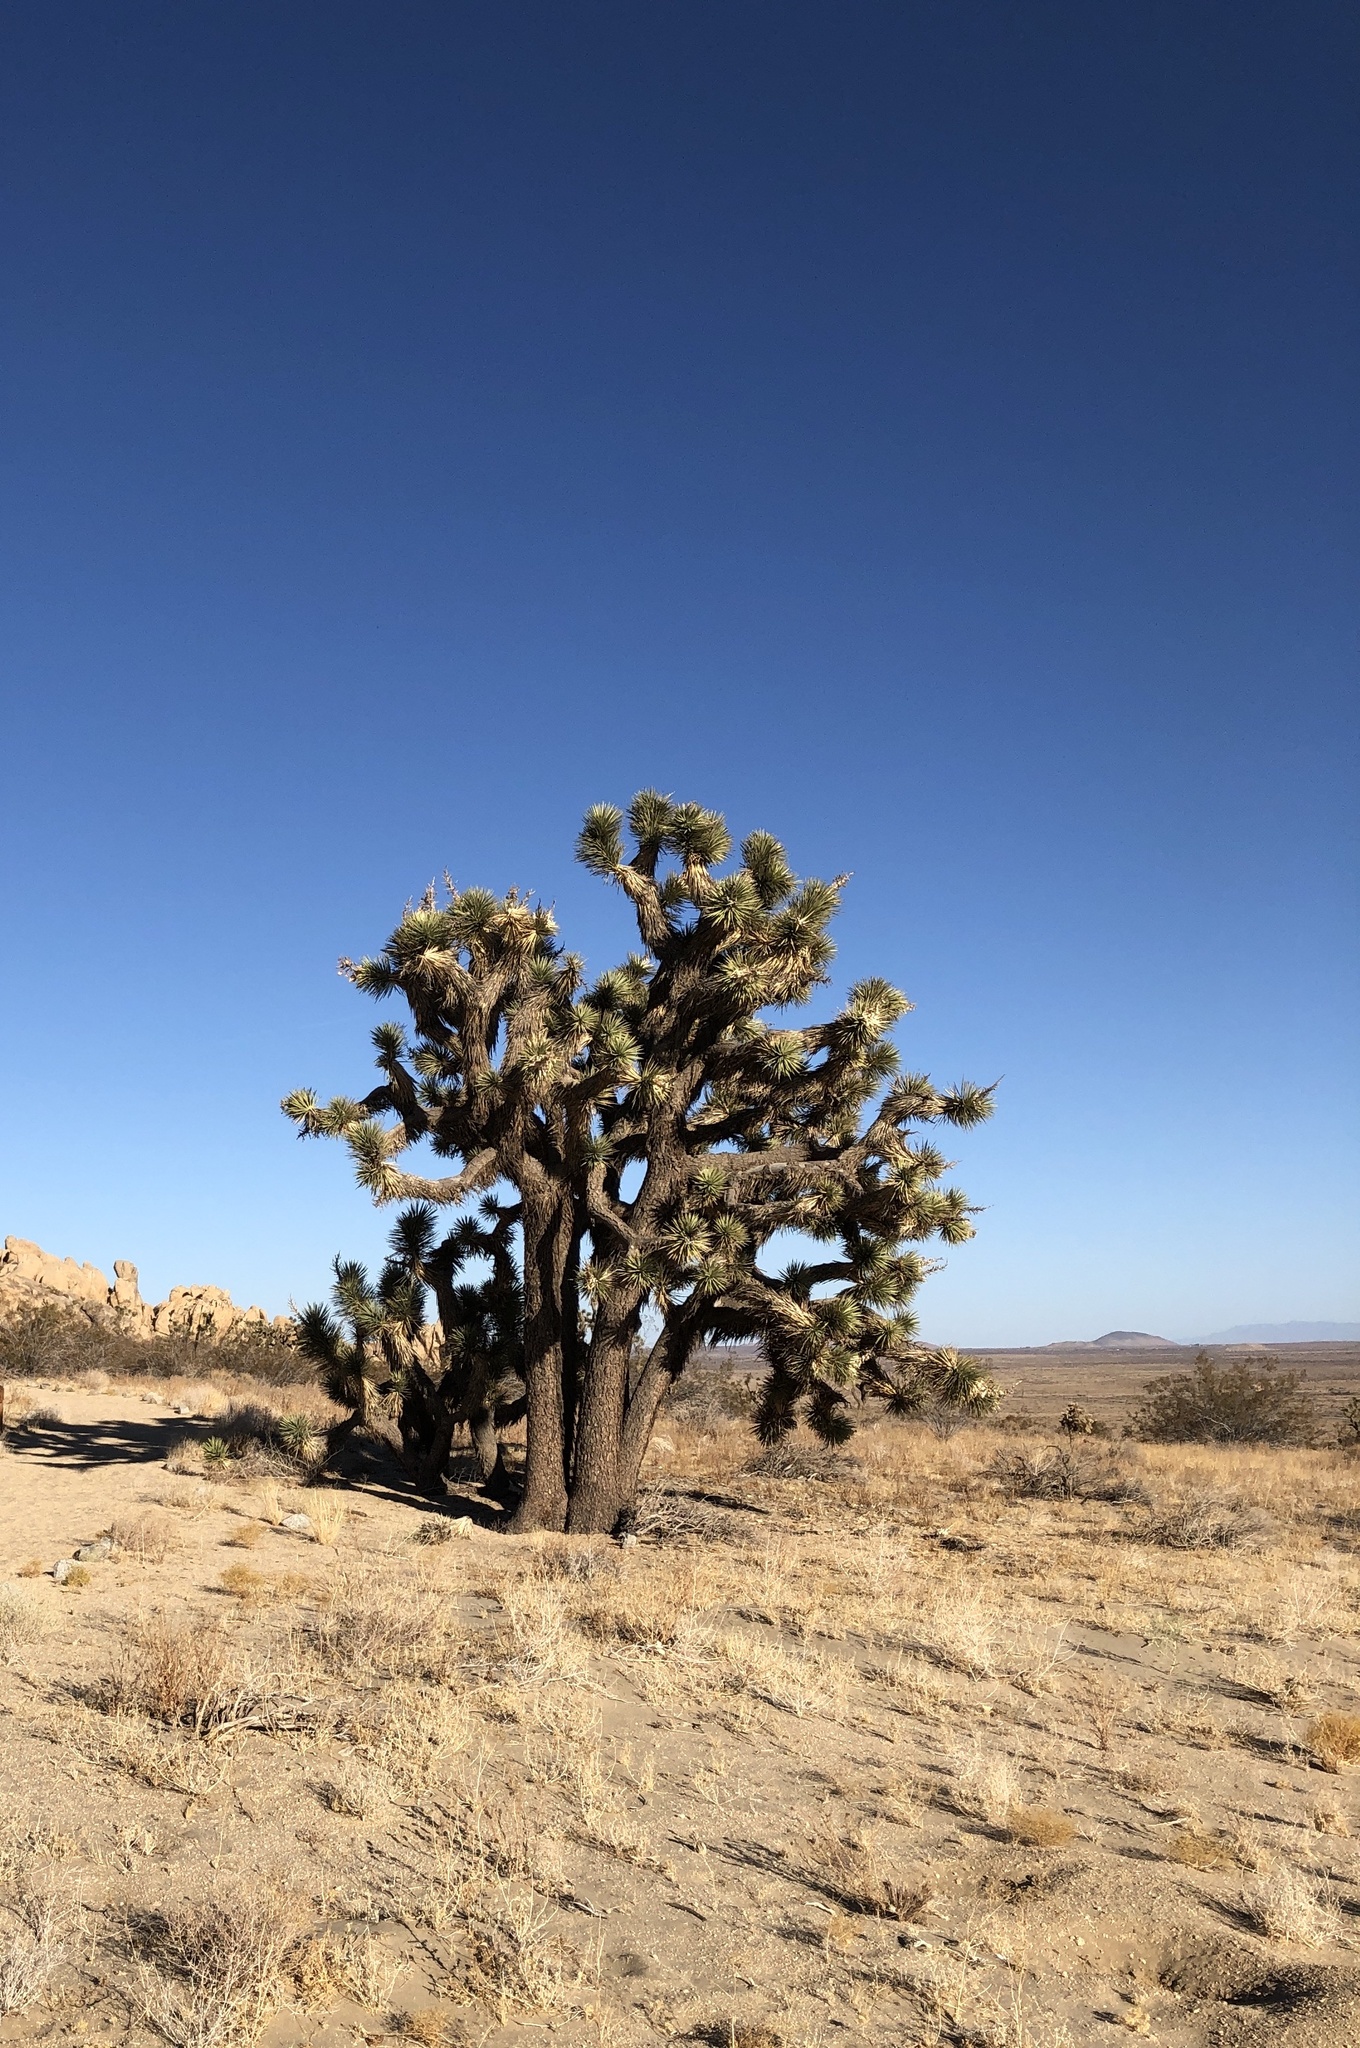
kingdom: Plantae
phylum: Tracheophyta
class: Liliopsida
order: Asparagales
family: Asparagaceae
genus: Yucca
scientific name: Yucca brevifolia
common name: Joshua tree
